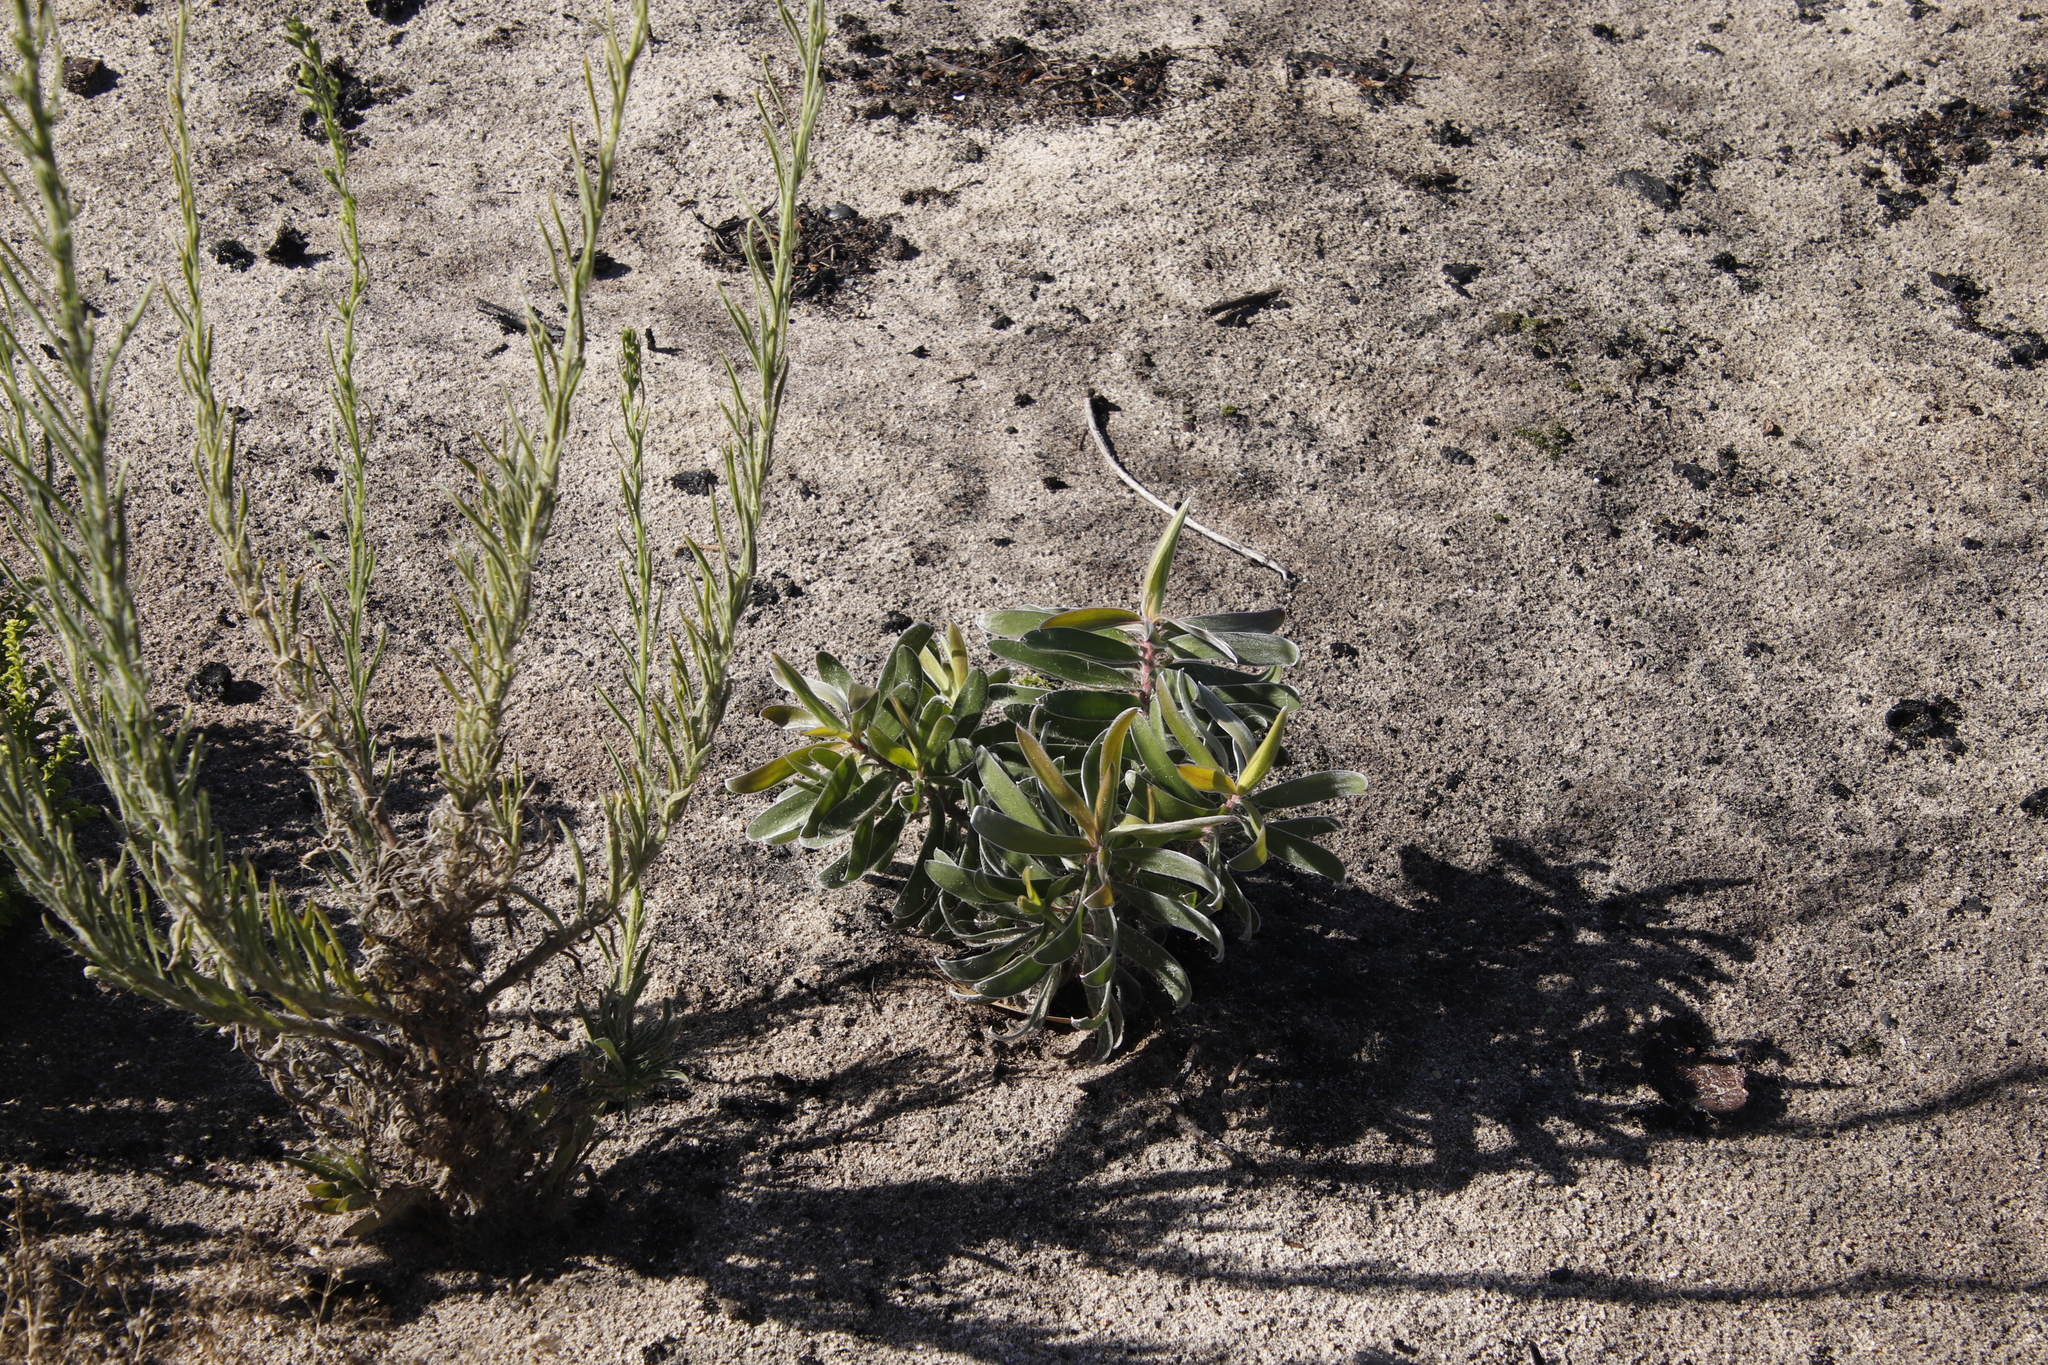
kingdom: Plantae
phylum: Tracheophyta
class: Magnoliopsida
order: Proteales
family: Proteaceae
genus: Leucadendron
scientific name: Leucadendron laureolum
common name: Golden sunshinebush
